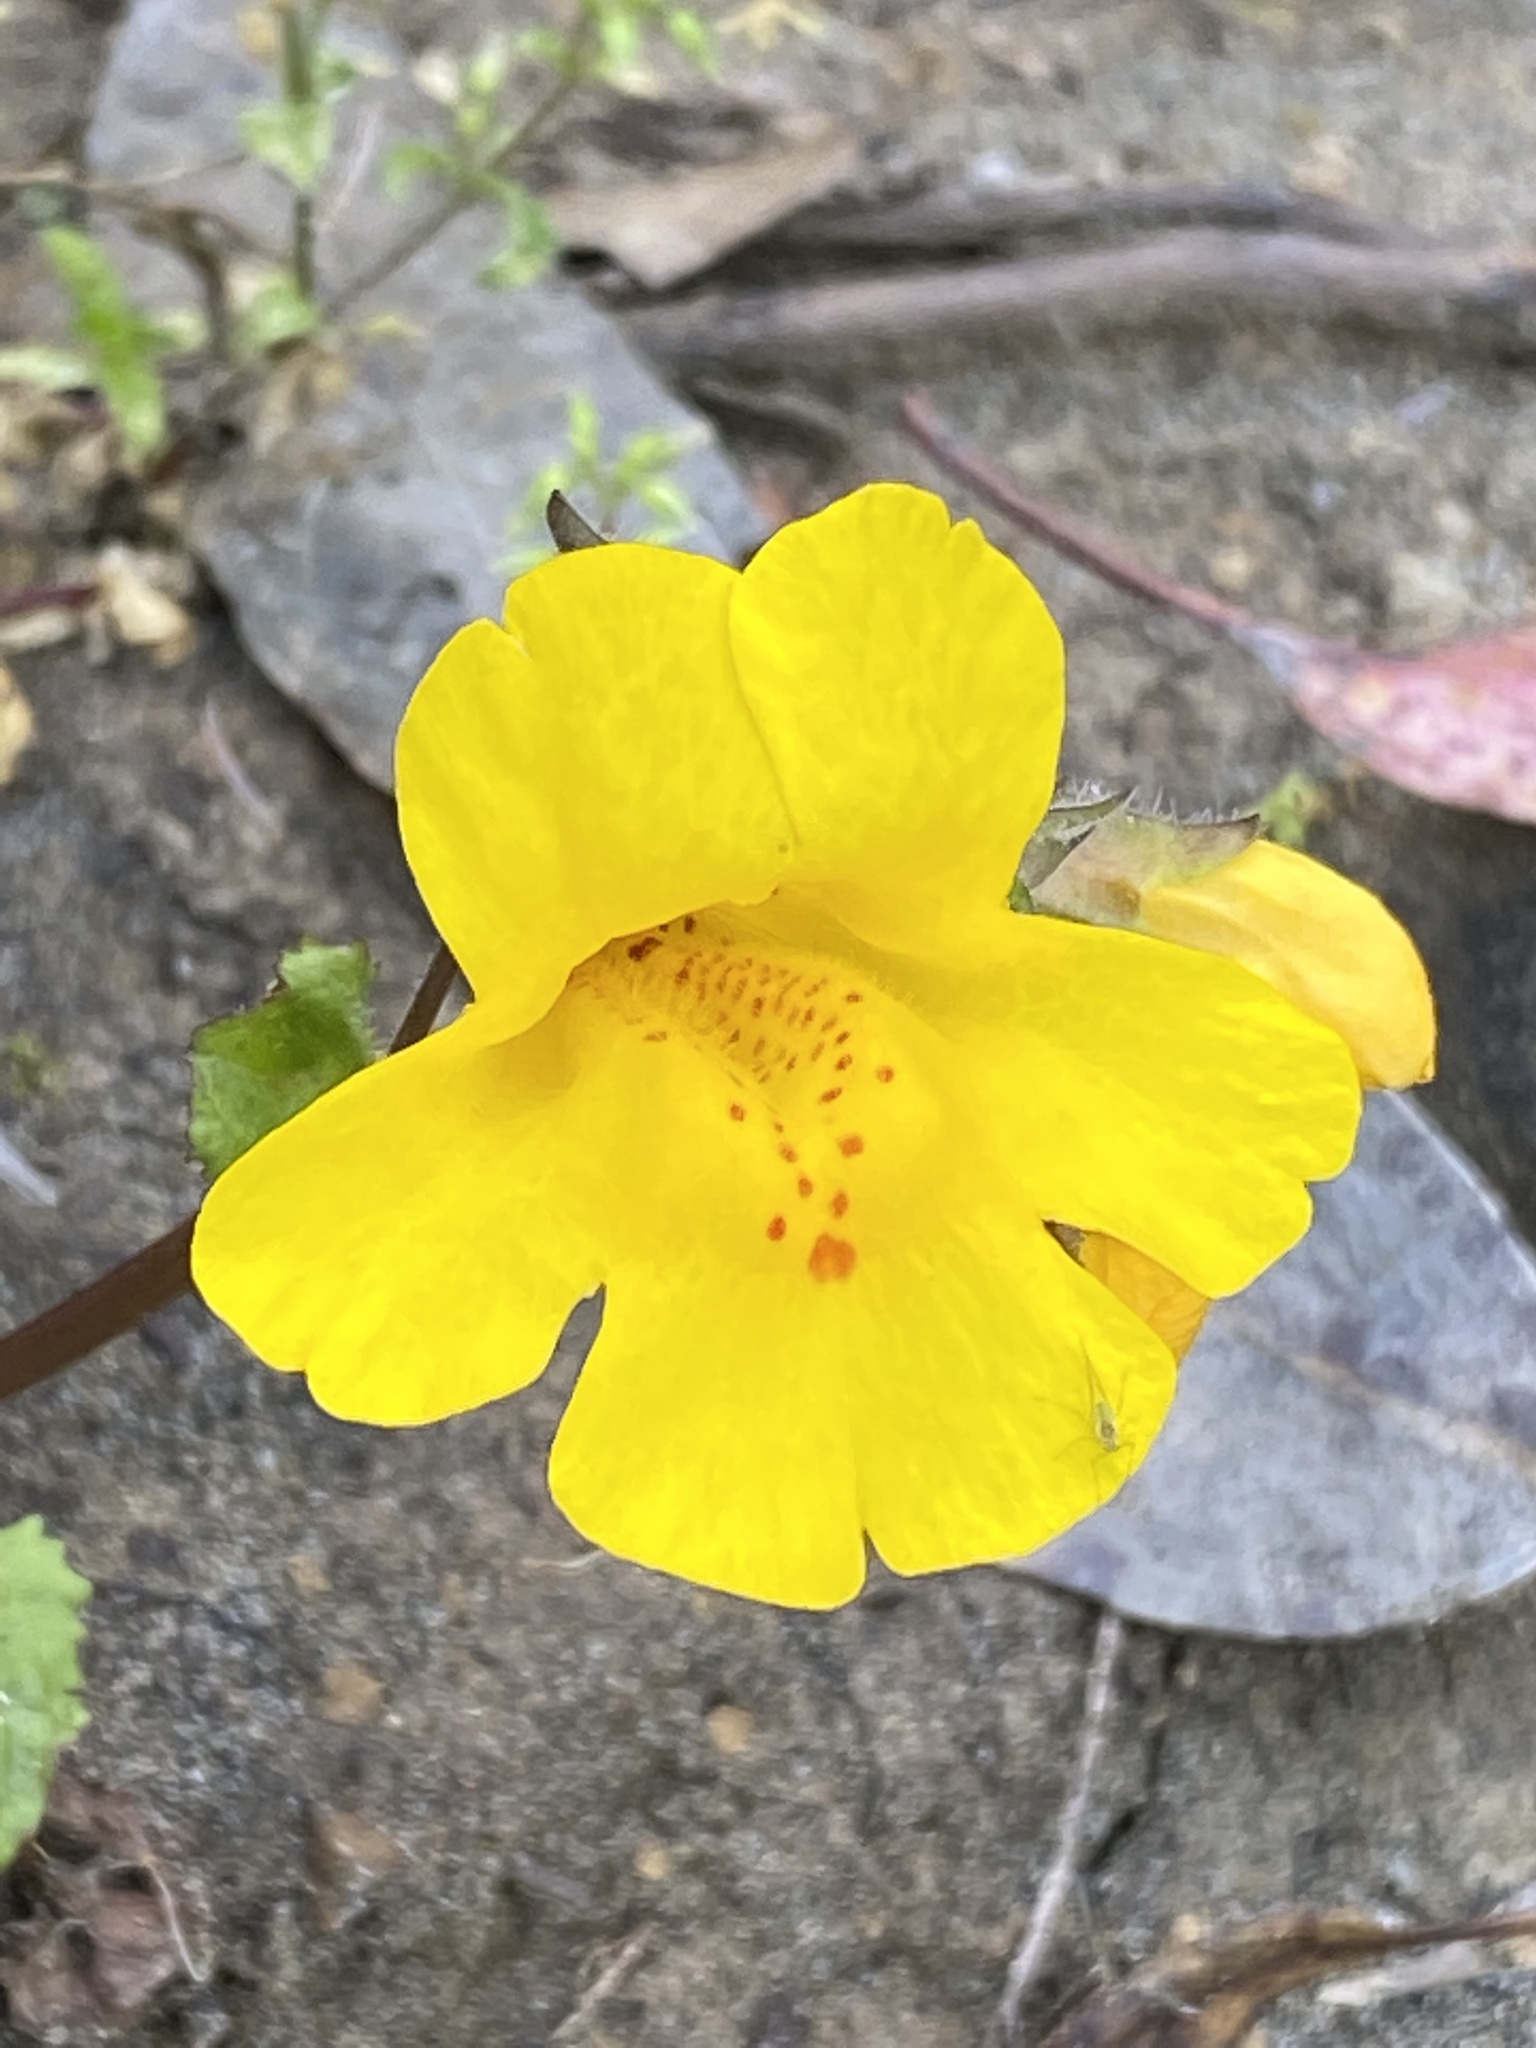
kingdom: Plantae
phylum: Tracheophyta
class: Magnoliopsida
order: Lamiales
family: Phrymaceae
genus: Erythranthe
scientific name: Erythranthe guttata
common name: Monkeyflower
